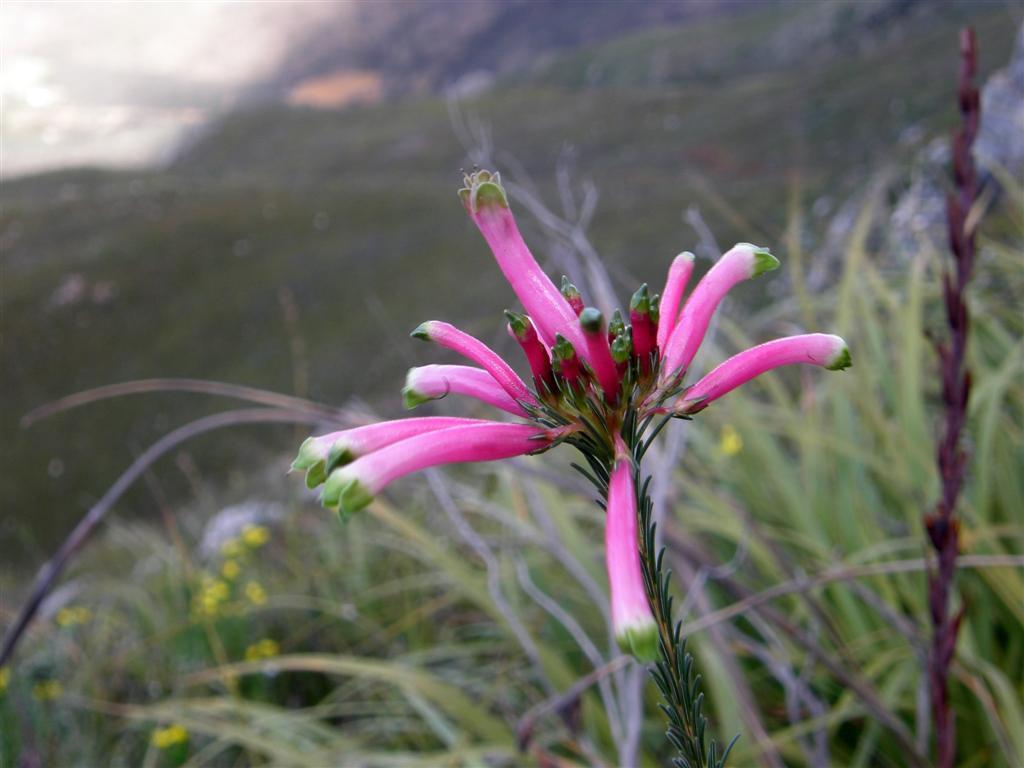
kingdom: Plantae
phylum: Tracheophyta
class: Magnoliopsida
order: Ericales
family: Ericaceae
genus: Erica
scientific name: Erica fascicularis
